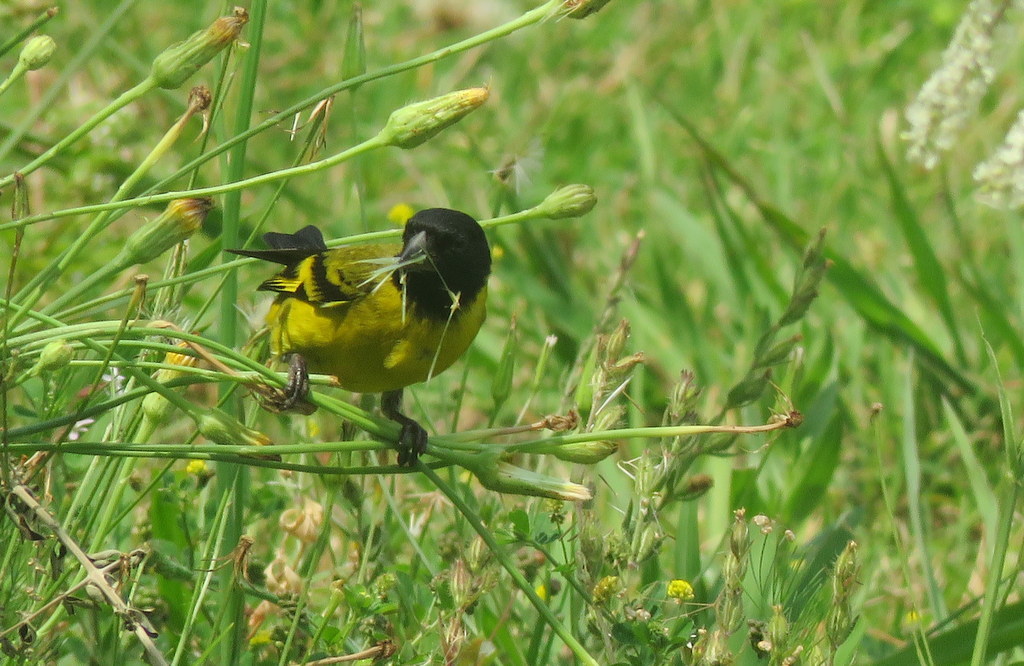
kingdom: Animalia
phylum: Chordata
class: Aves
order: Passeriformes
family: Fringillidae
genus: Spinus
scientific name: Spinus magellanicus
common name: Hooded siskin
